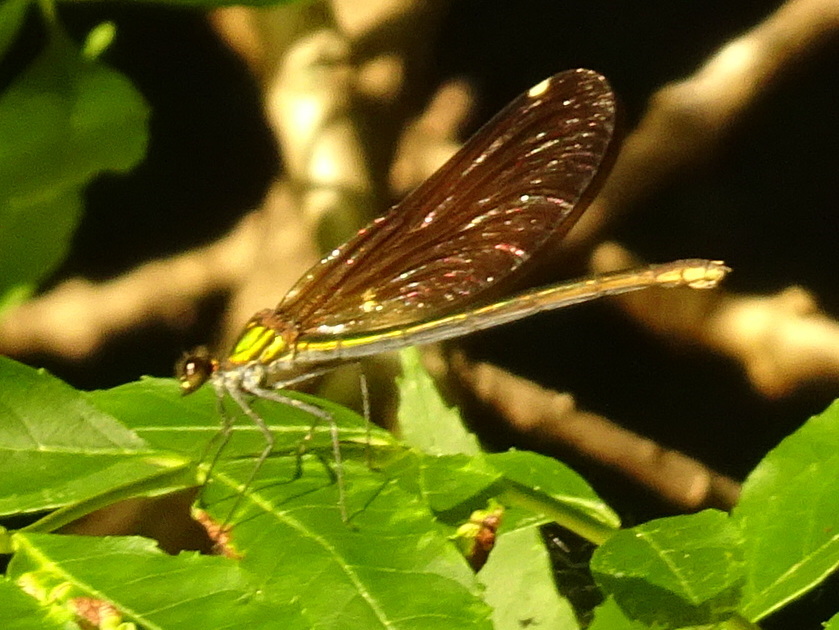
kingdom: Animalia
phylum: Arthropoda
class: Insecta
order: Odonata
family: Calopterygidae
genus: Calopteryx
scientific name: Calopteryx virgo
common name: Beautiful demoiselle
